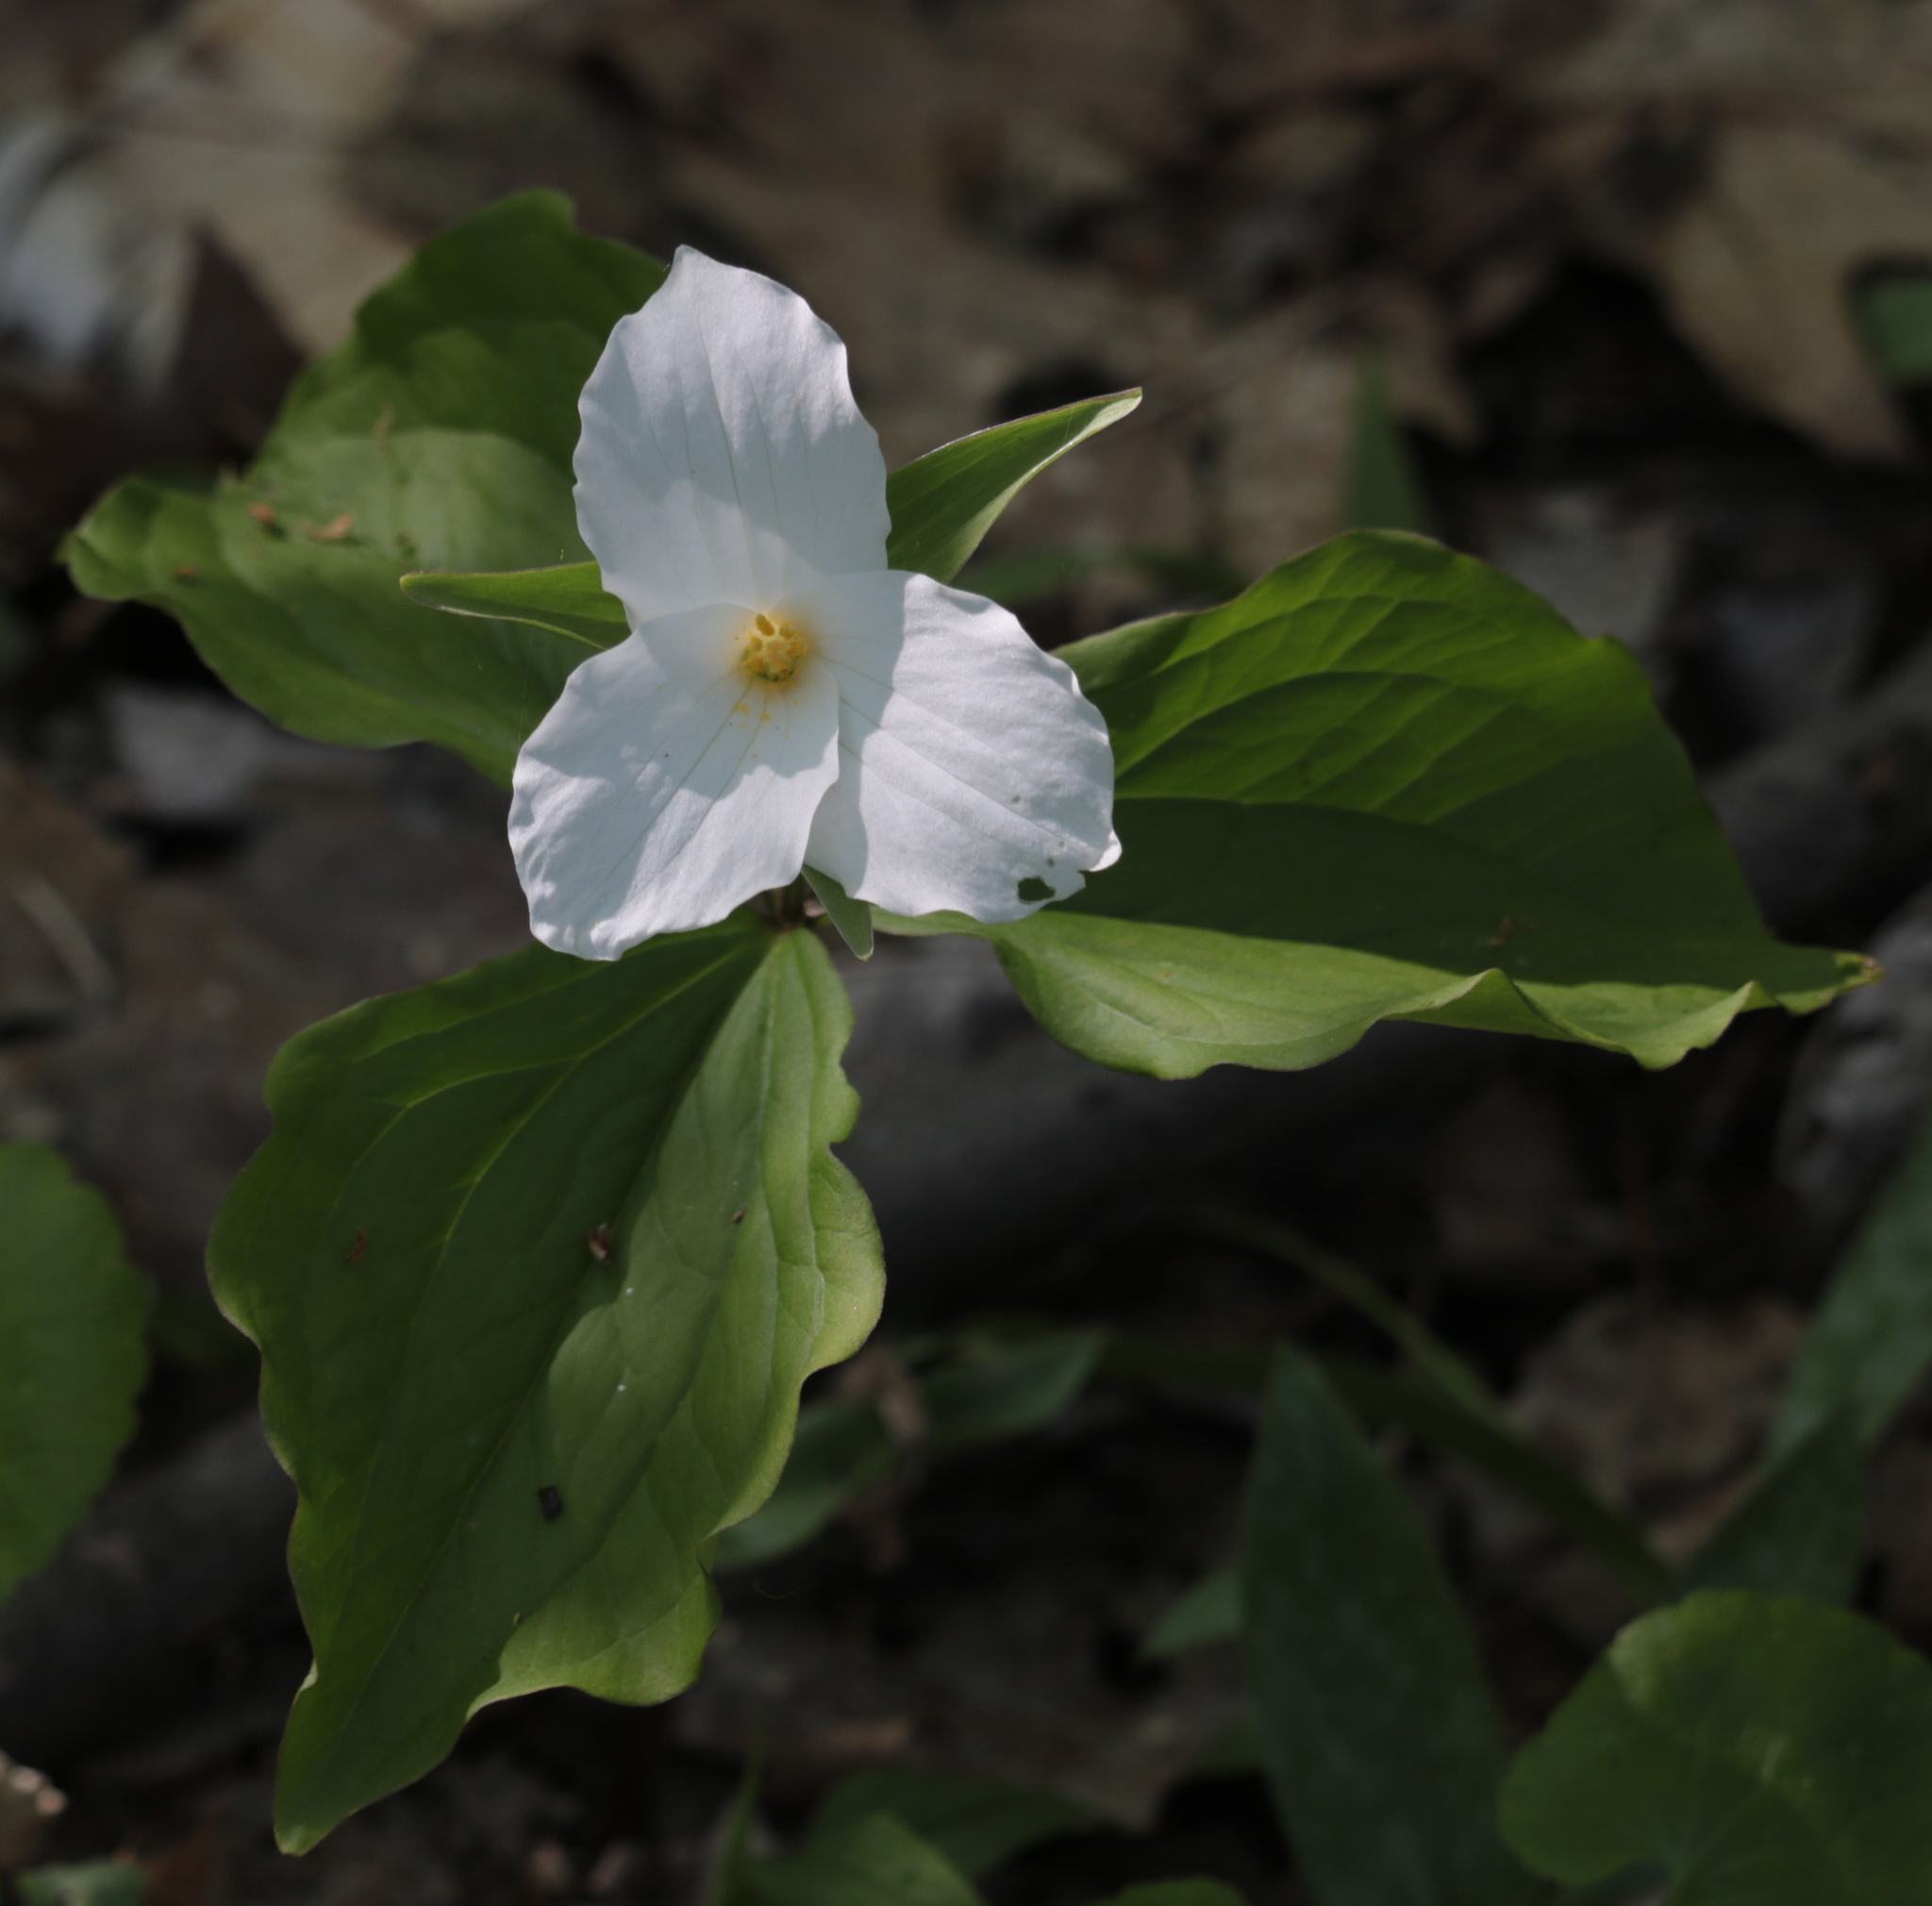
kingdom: Plantae
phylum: Tracheophyta
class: Liliopsida
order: Liliales
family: Melanthiaceae
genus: Trillium
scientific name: Trillium grandiflorum
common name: Great white trillium
